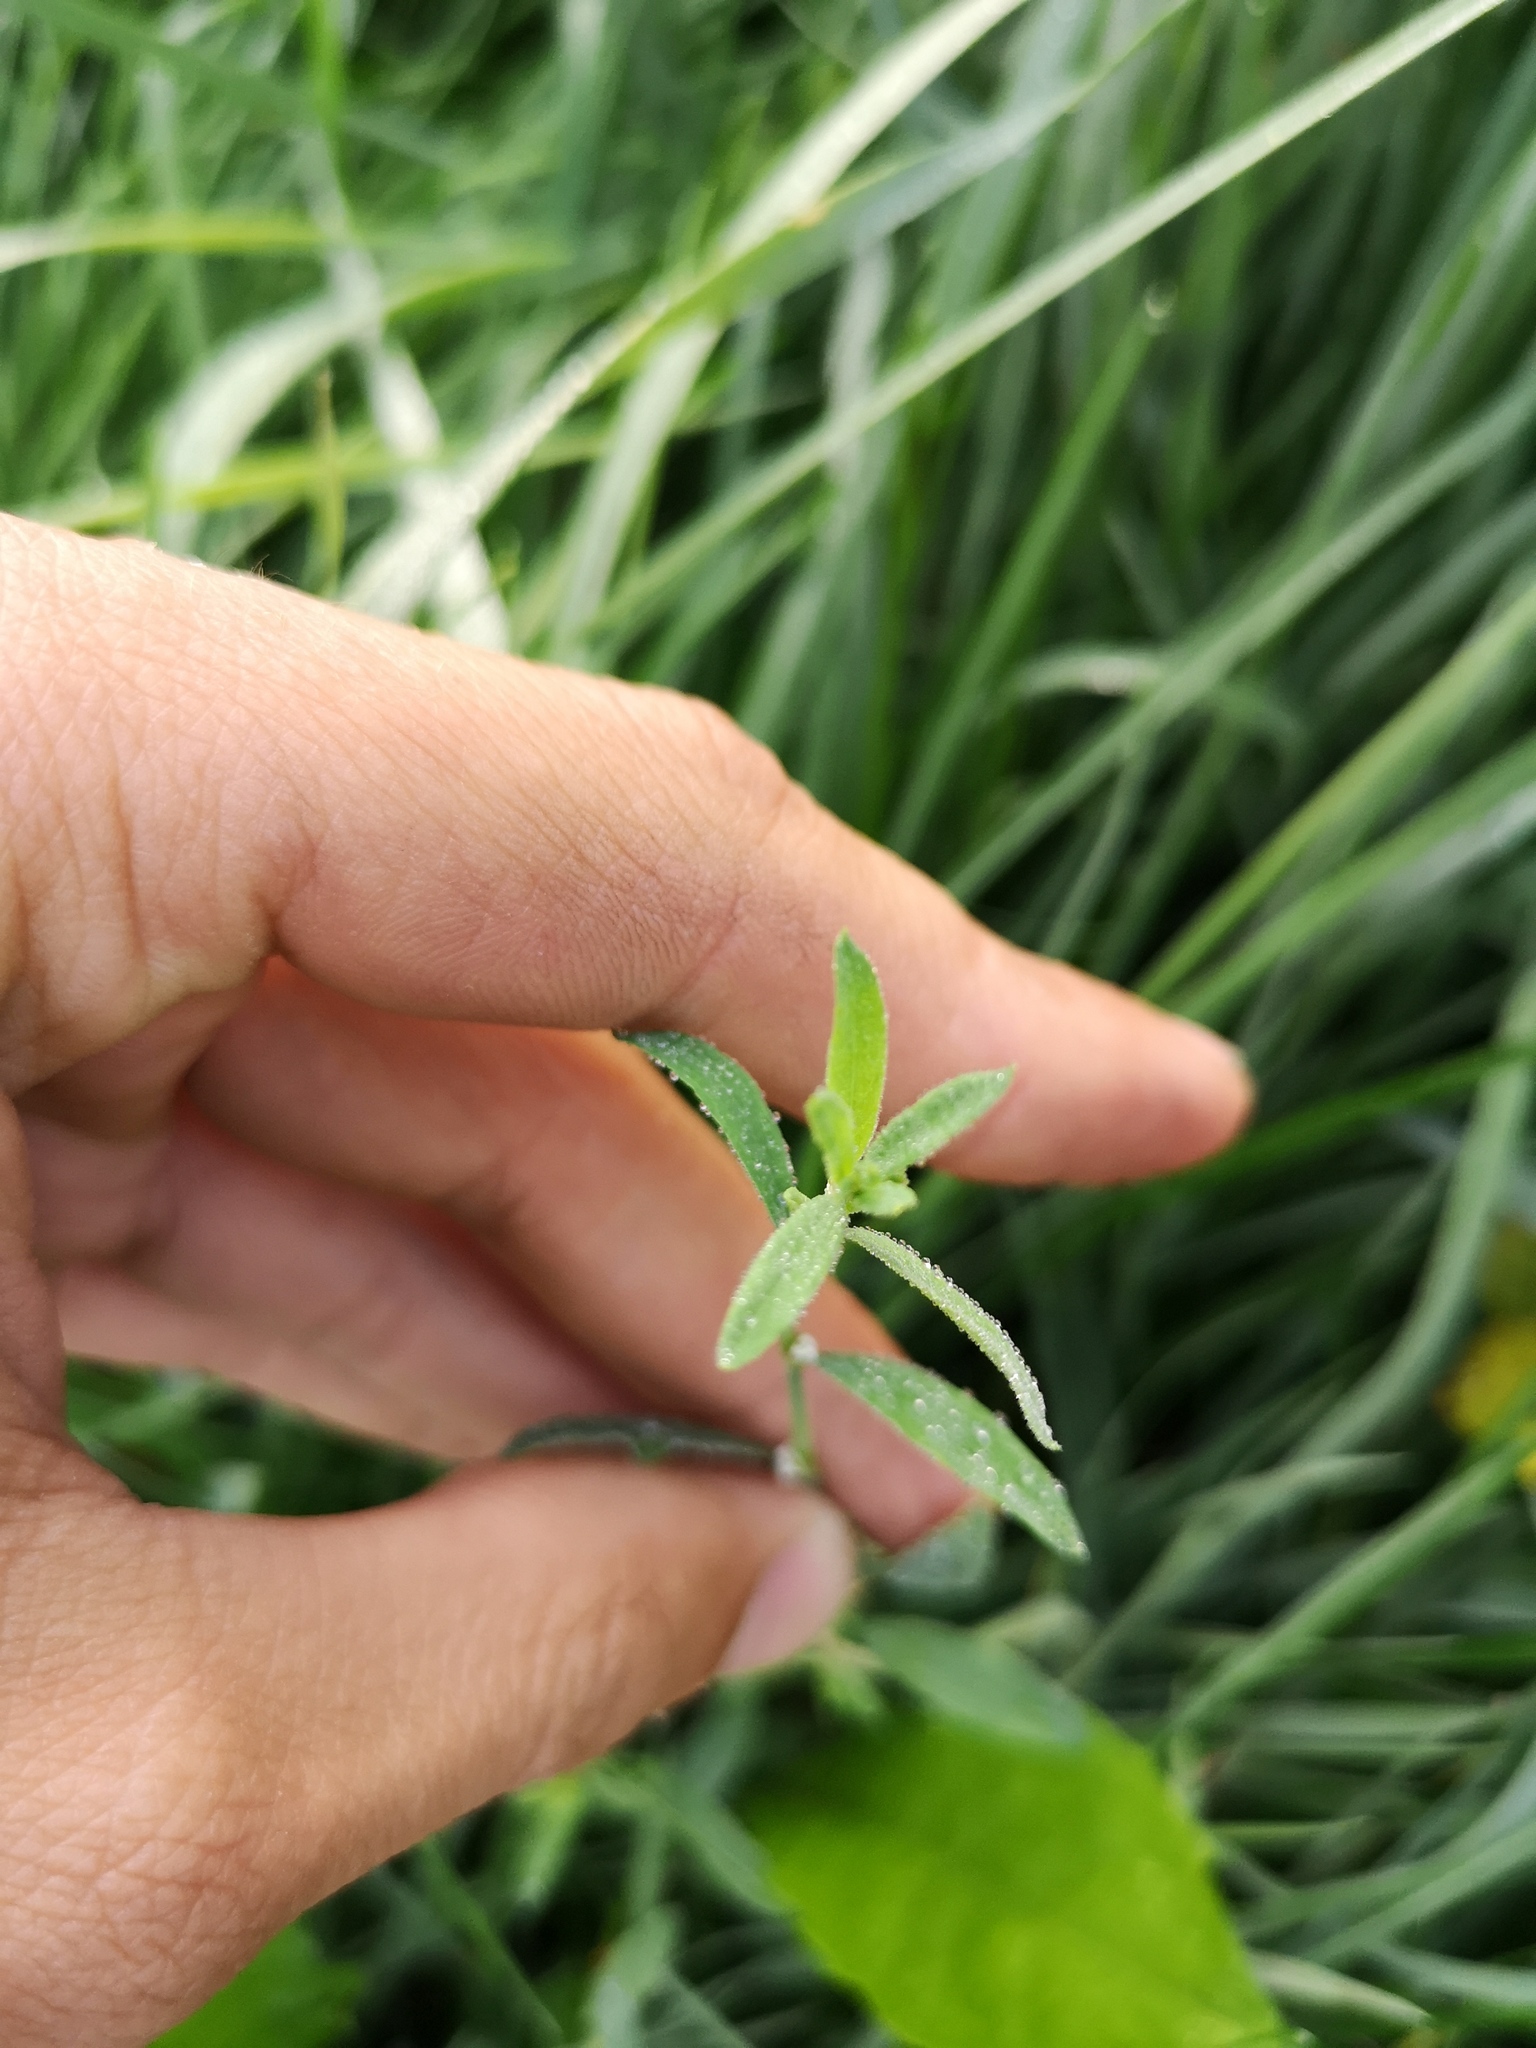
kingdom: Plantae
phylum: Tracheophyta
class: Magnoliopsida
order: Caryophyllales
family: Polygonaceae
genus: Polygonum
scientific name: Polygonum aviculare
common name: Prostrate knotweed
